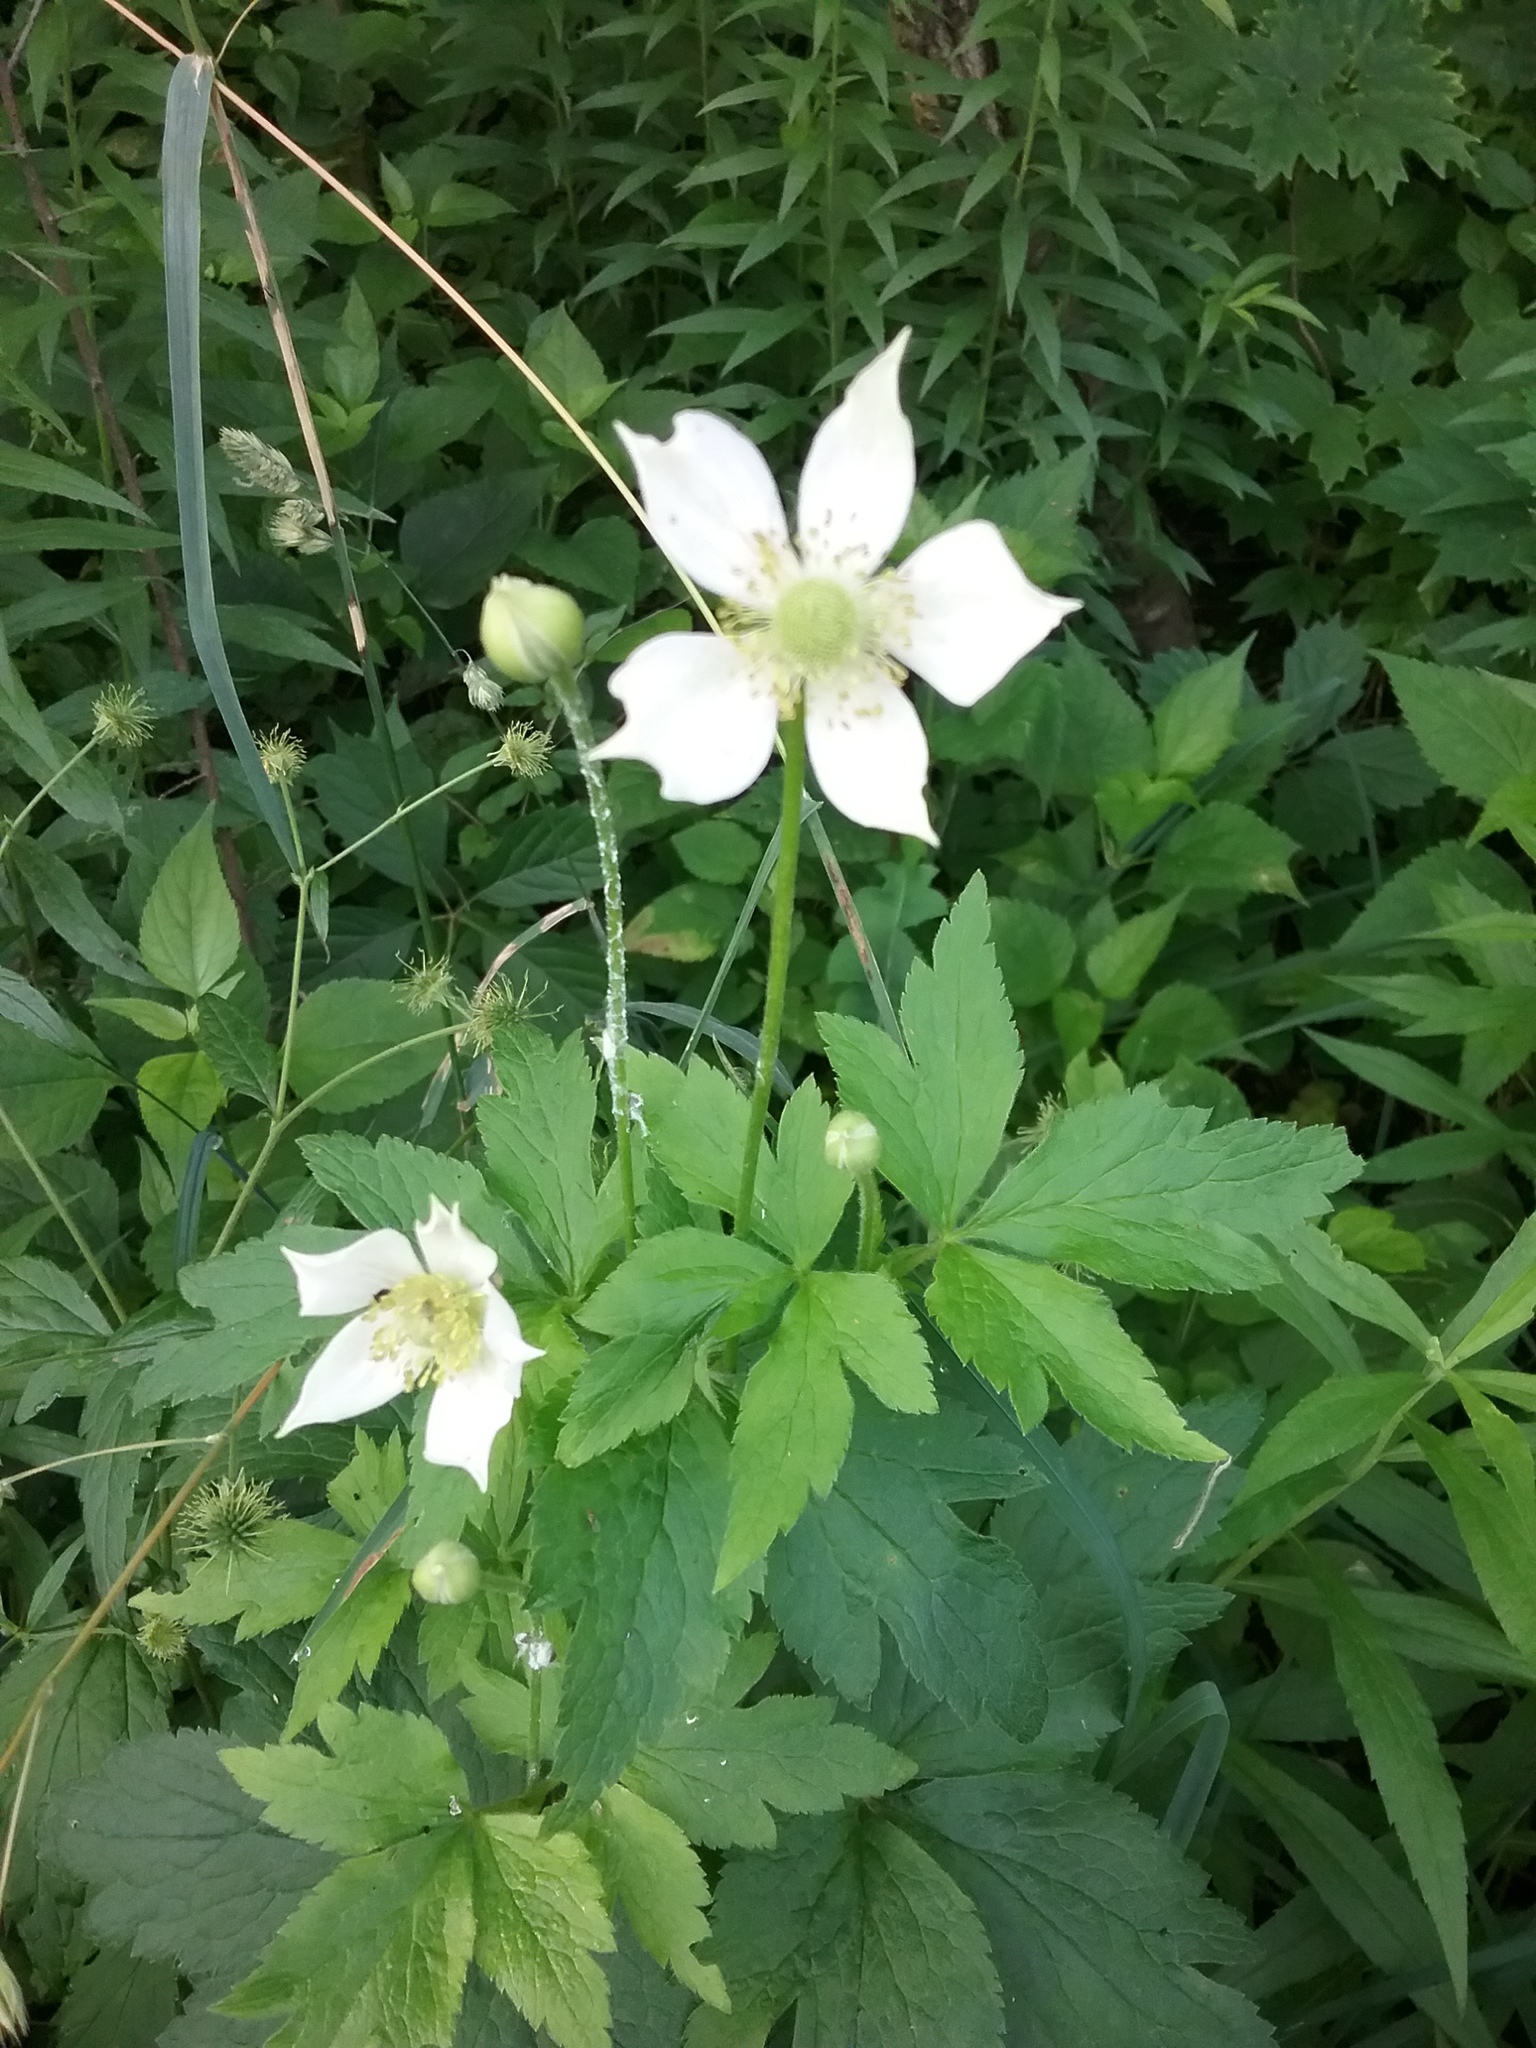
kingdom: Plantae
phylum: Tracheophyta
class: Magnoliopsida
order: Ranunculales
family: Ranunculaceae
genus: Anemone
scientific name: Anemone virginiana
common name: Tall anemone
